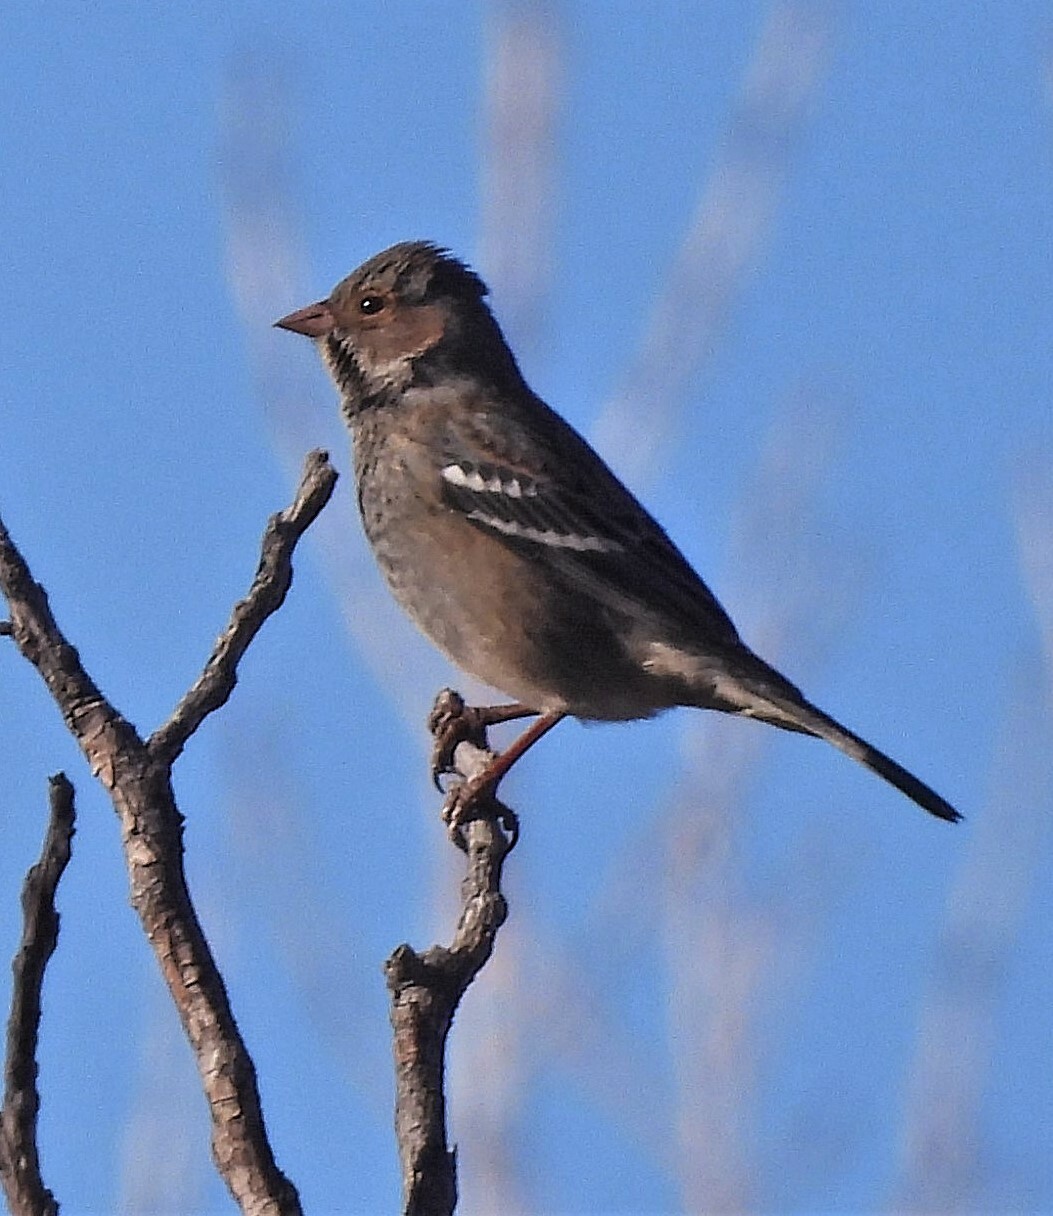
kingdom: Animalia
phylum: Chordata
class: Aves
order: Passeriformes
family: Thraupidae
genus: Rhopospina
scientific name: Rhopospina fruticeti
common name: Mourning sierra finch
